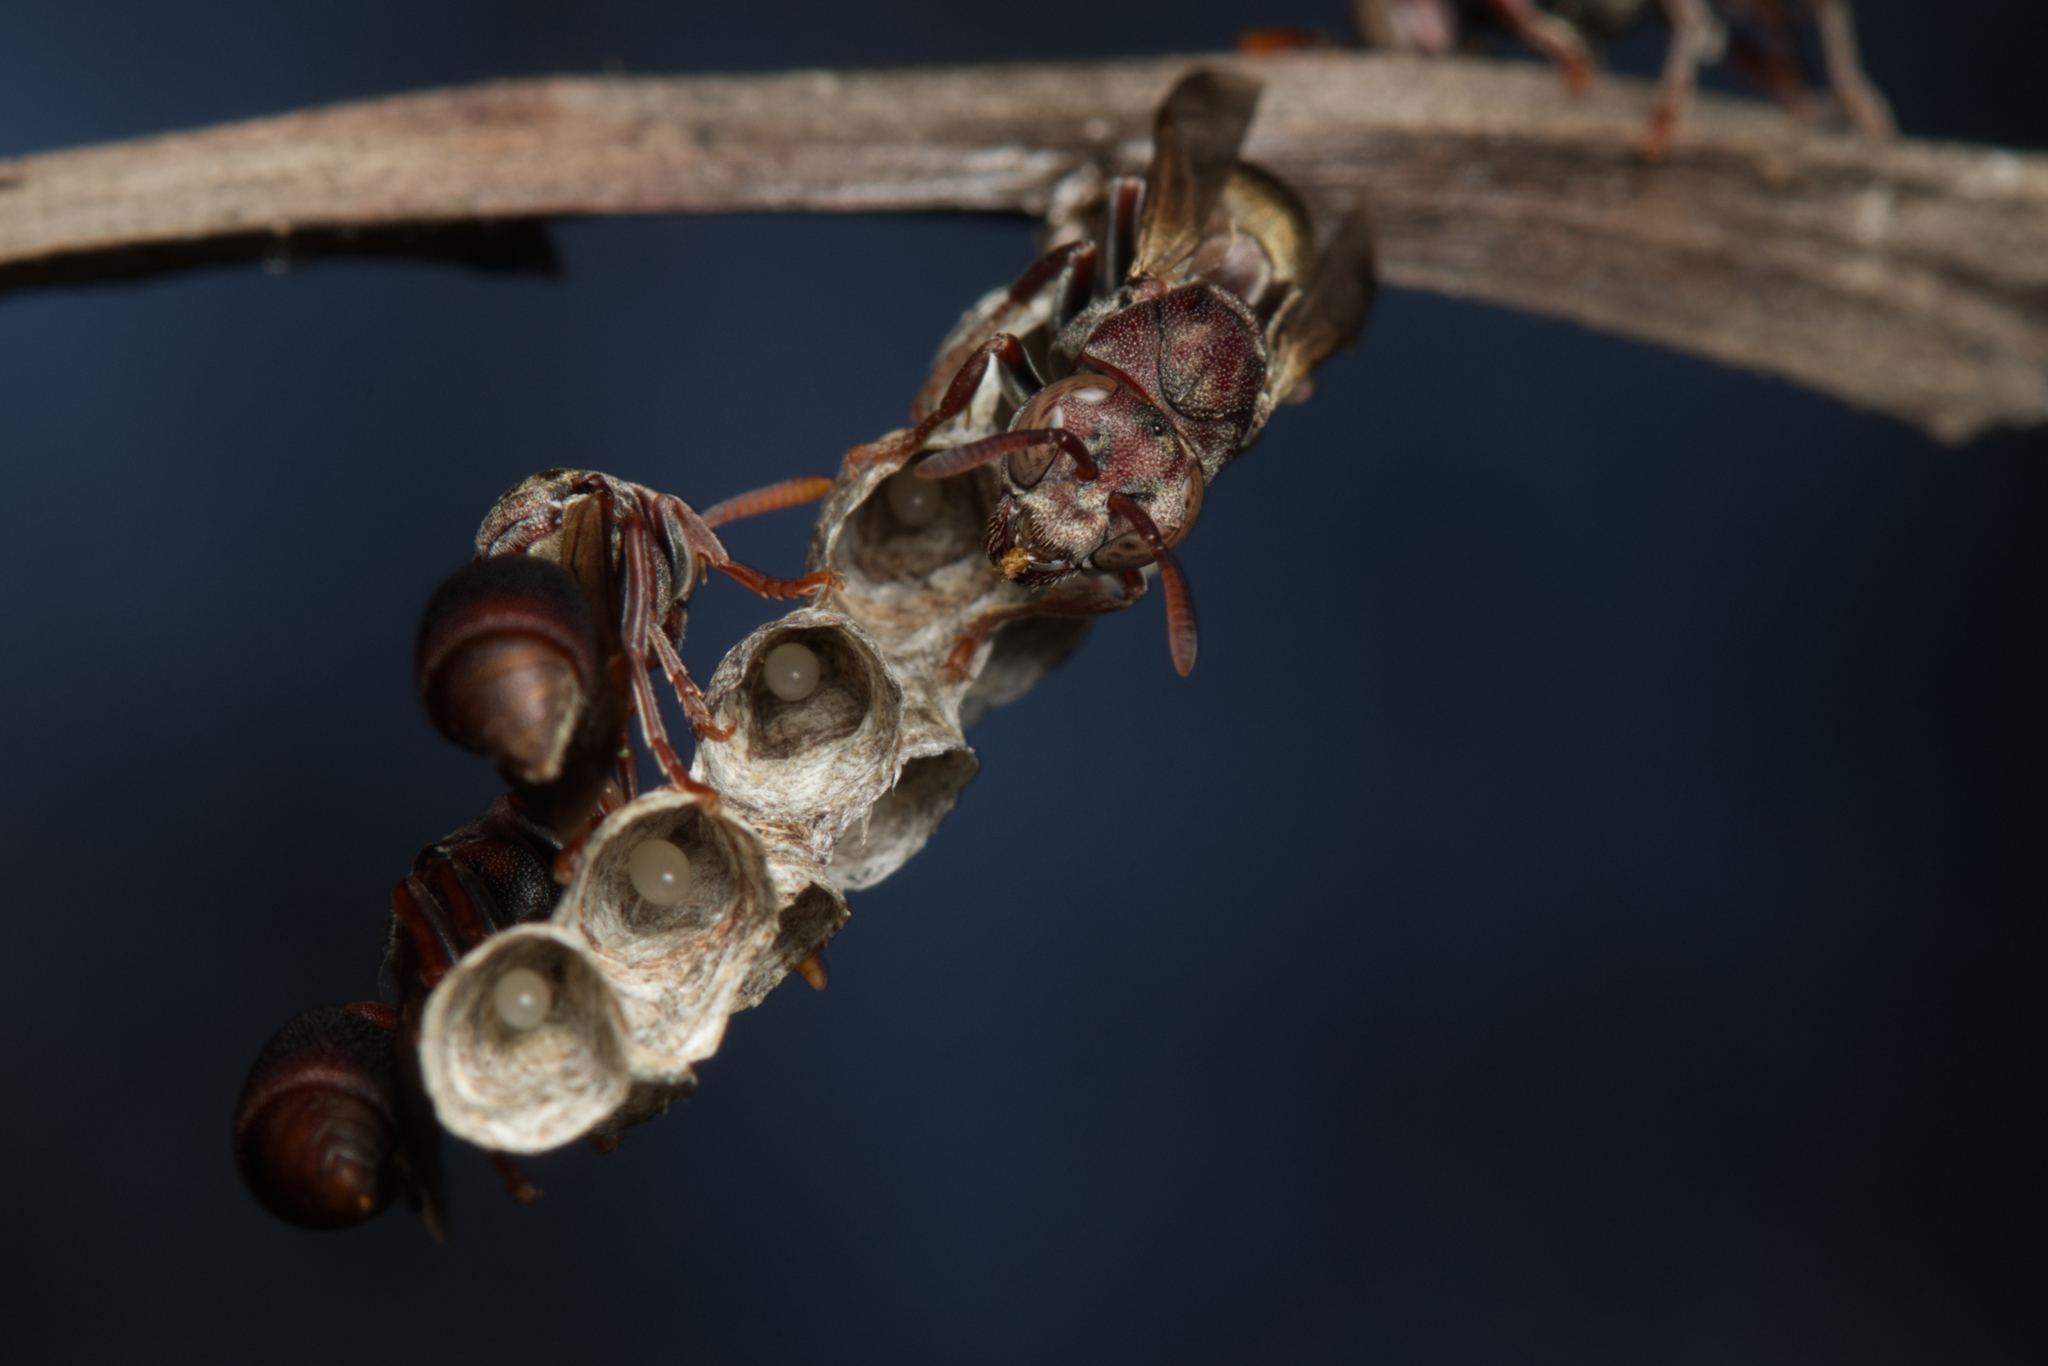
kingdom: Animalia
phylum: Arthropoda
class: Insecta
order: Hymenoptera
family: Vespidae
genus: Ropalidia
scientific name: Ropalidia revolutionalis
